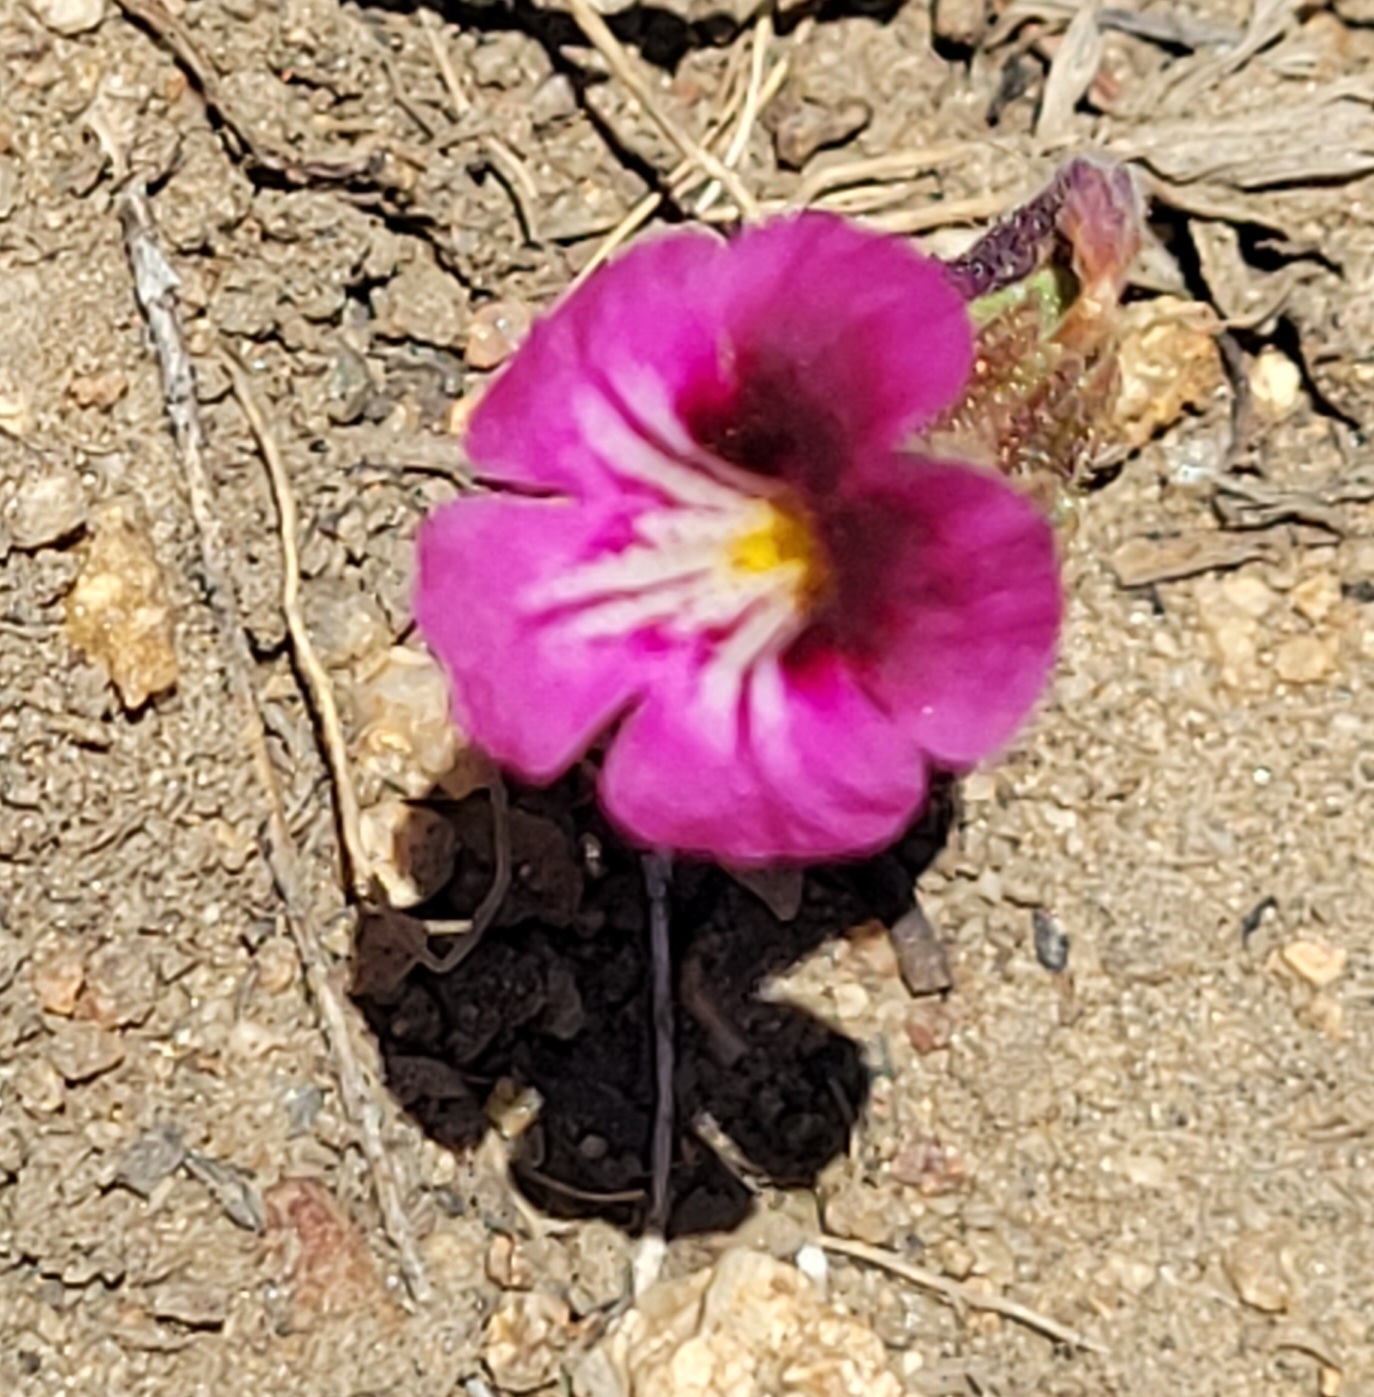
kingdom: Plantae
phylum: Tracheophyta
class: Magnoliopsida
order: Lamiales
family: Phrymaceae
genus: Diplacus
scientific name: Diplacus constrictus
